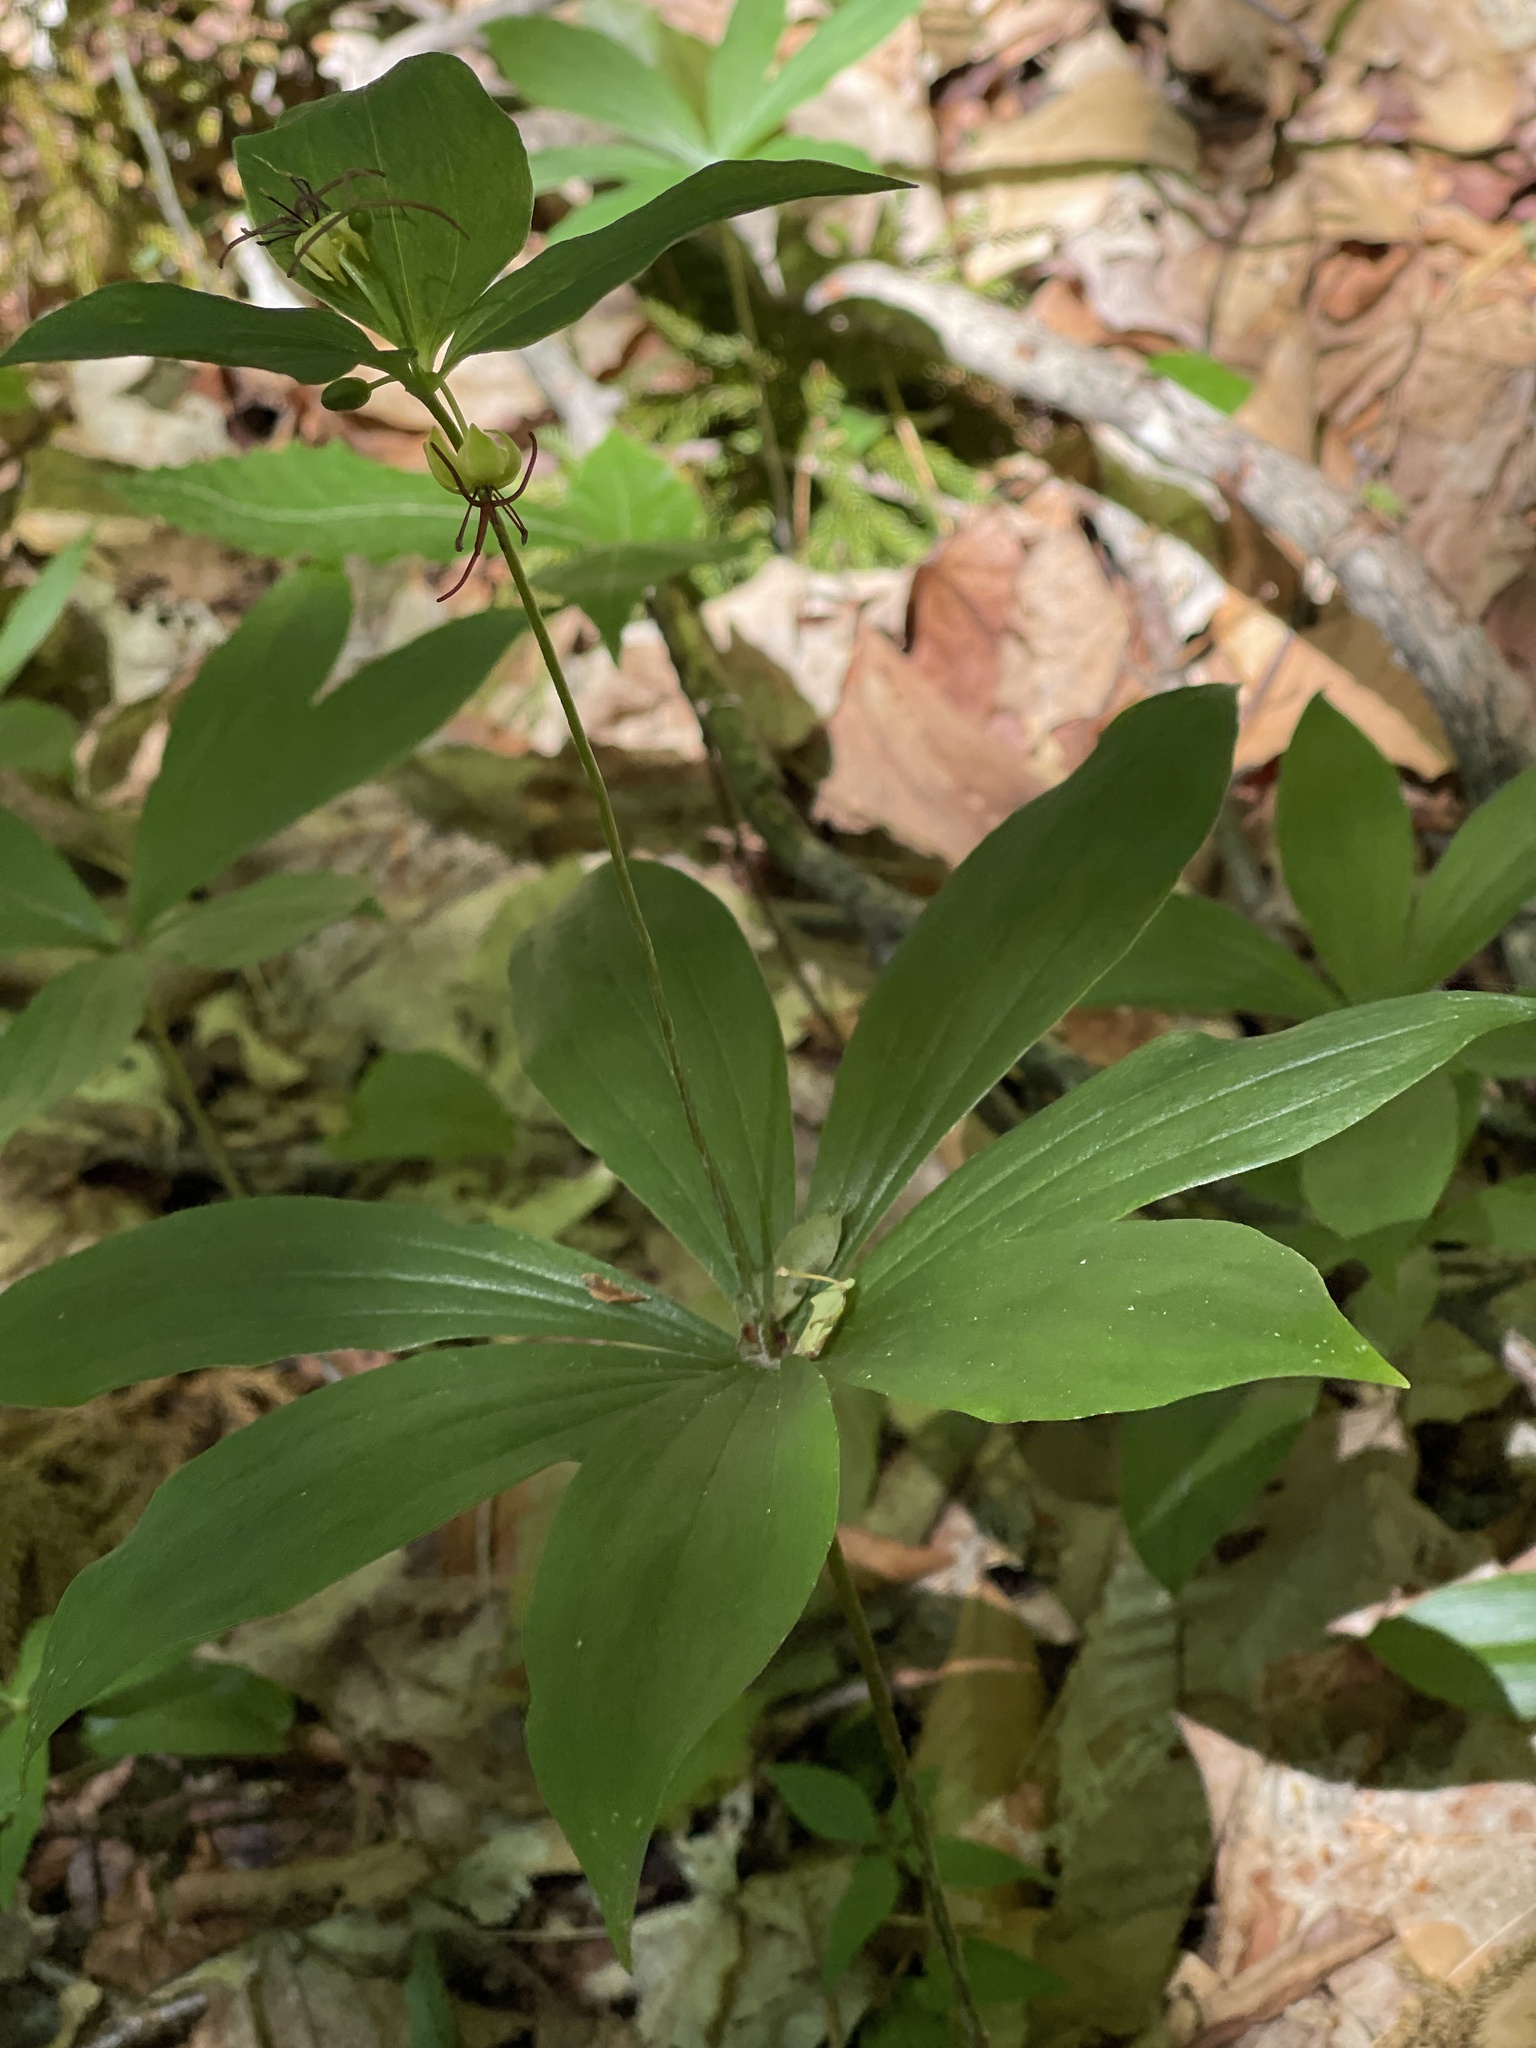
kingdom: Plantae
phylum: Tracheophyta
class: Liliopsida
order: Liliales
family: Liliaceae
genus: Medeola
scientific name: Medeola virginiana
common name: Indian cucumber-root
